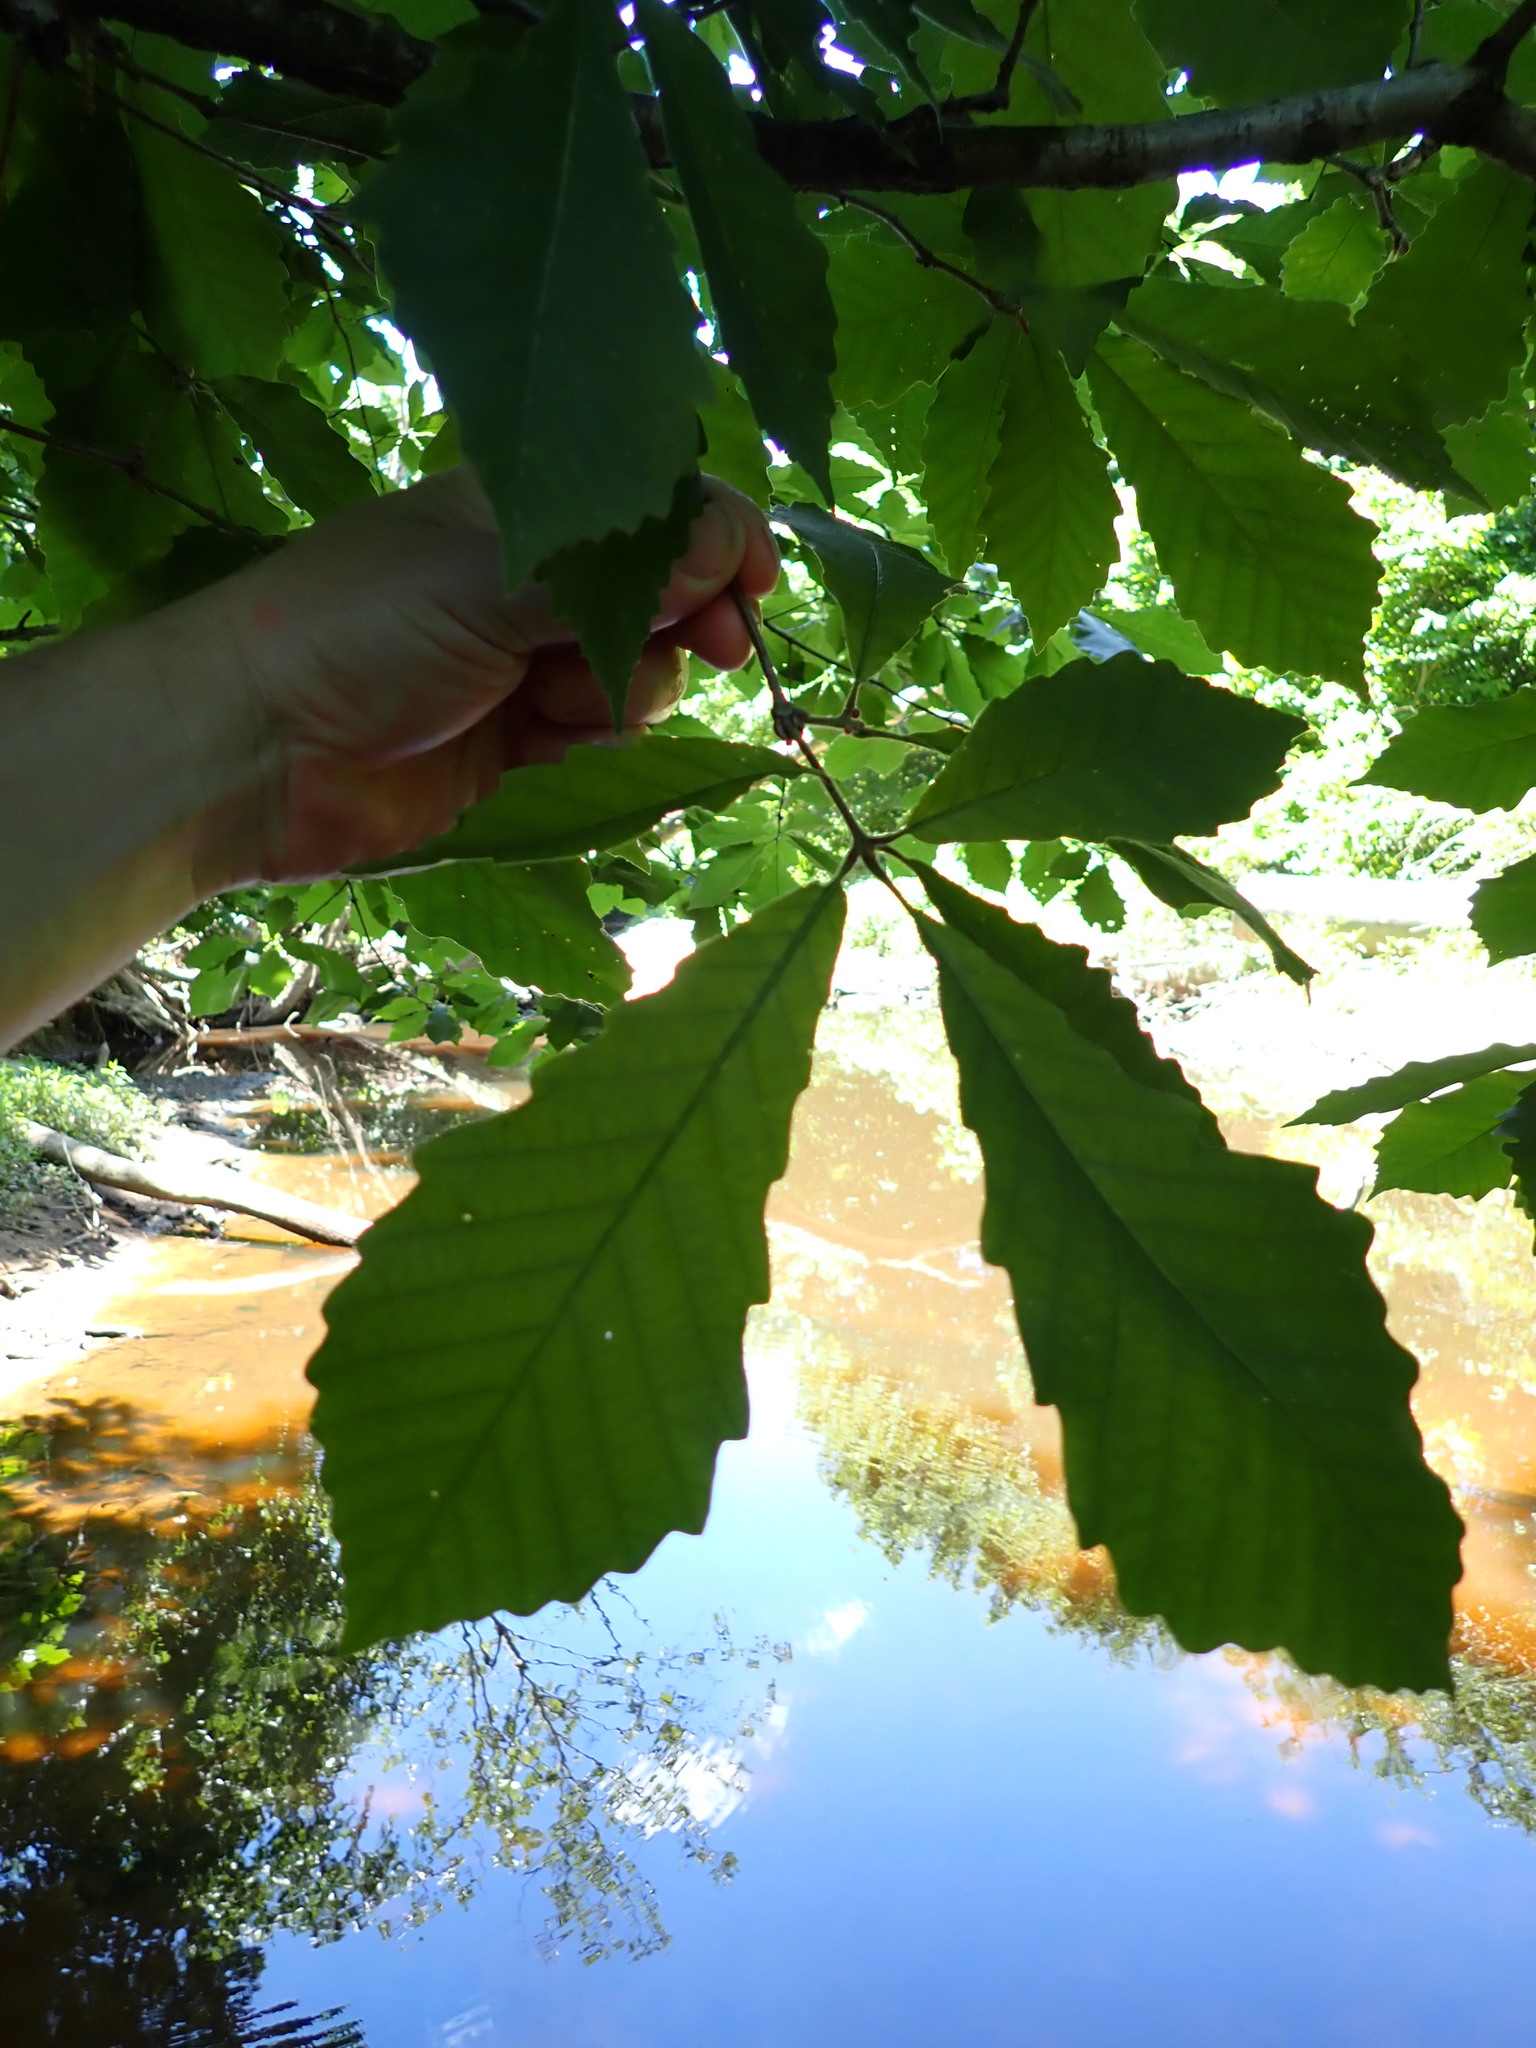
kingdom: Plantae
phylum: Tracheophyta
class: Magnoliopsida
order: Fagales
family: Fagaceae
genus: Quercus
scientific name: Quercus michauxii
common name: Swamp chestnut oak
